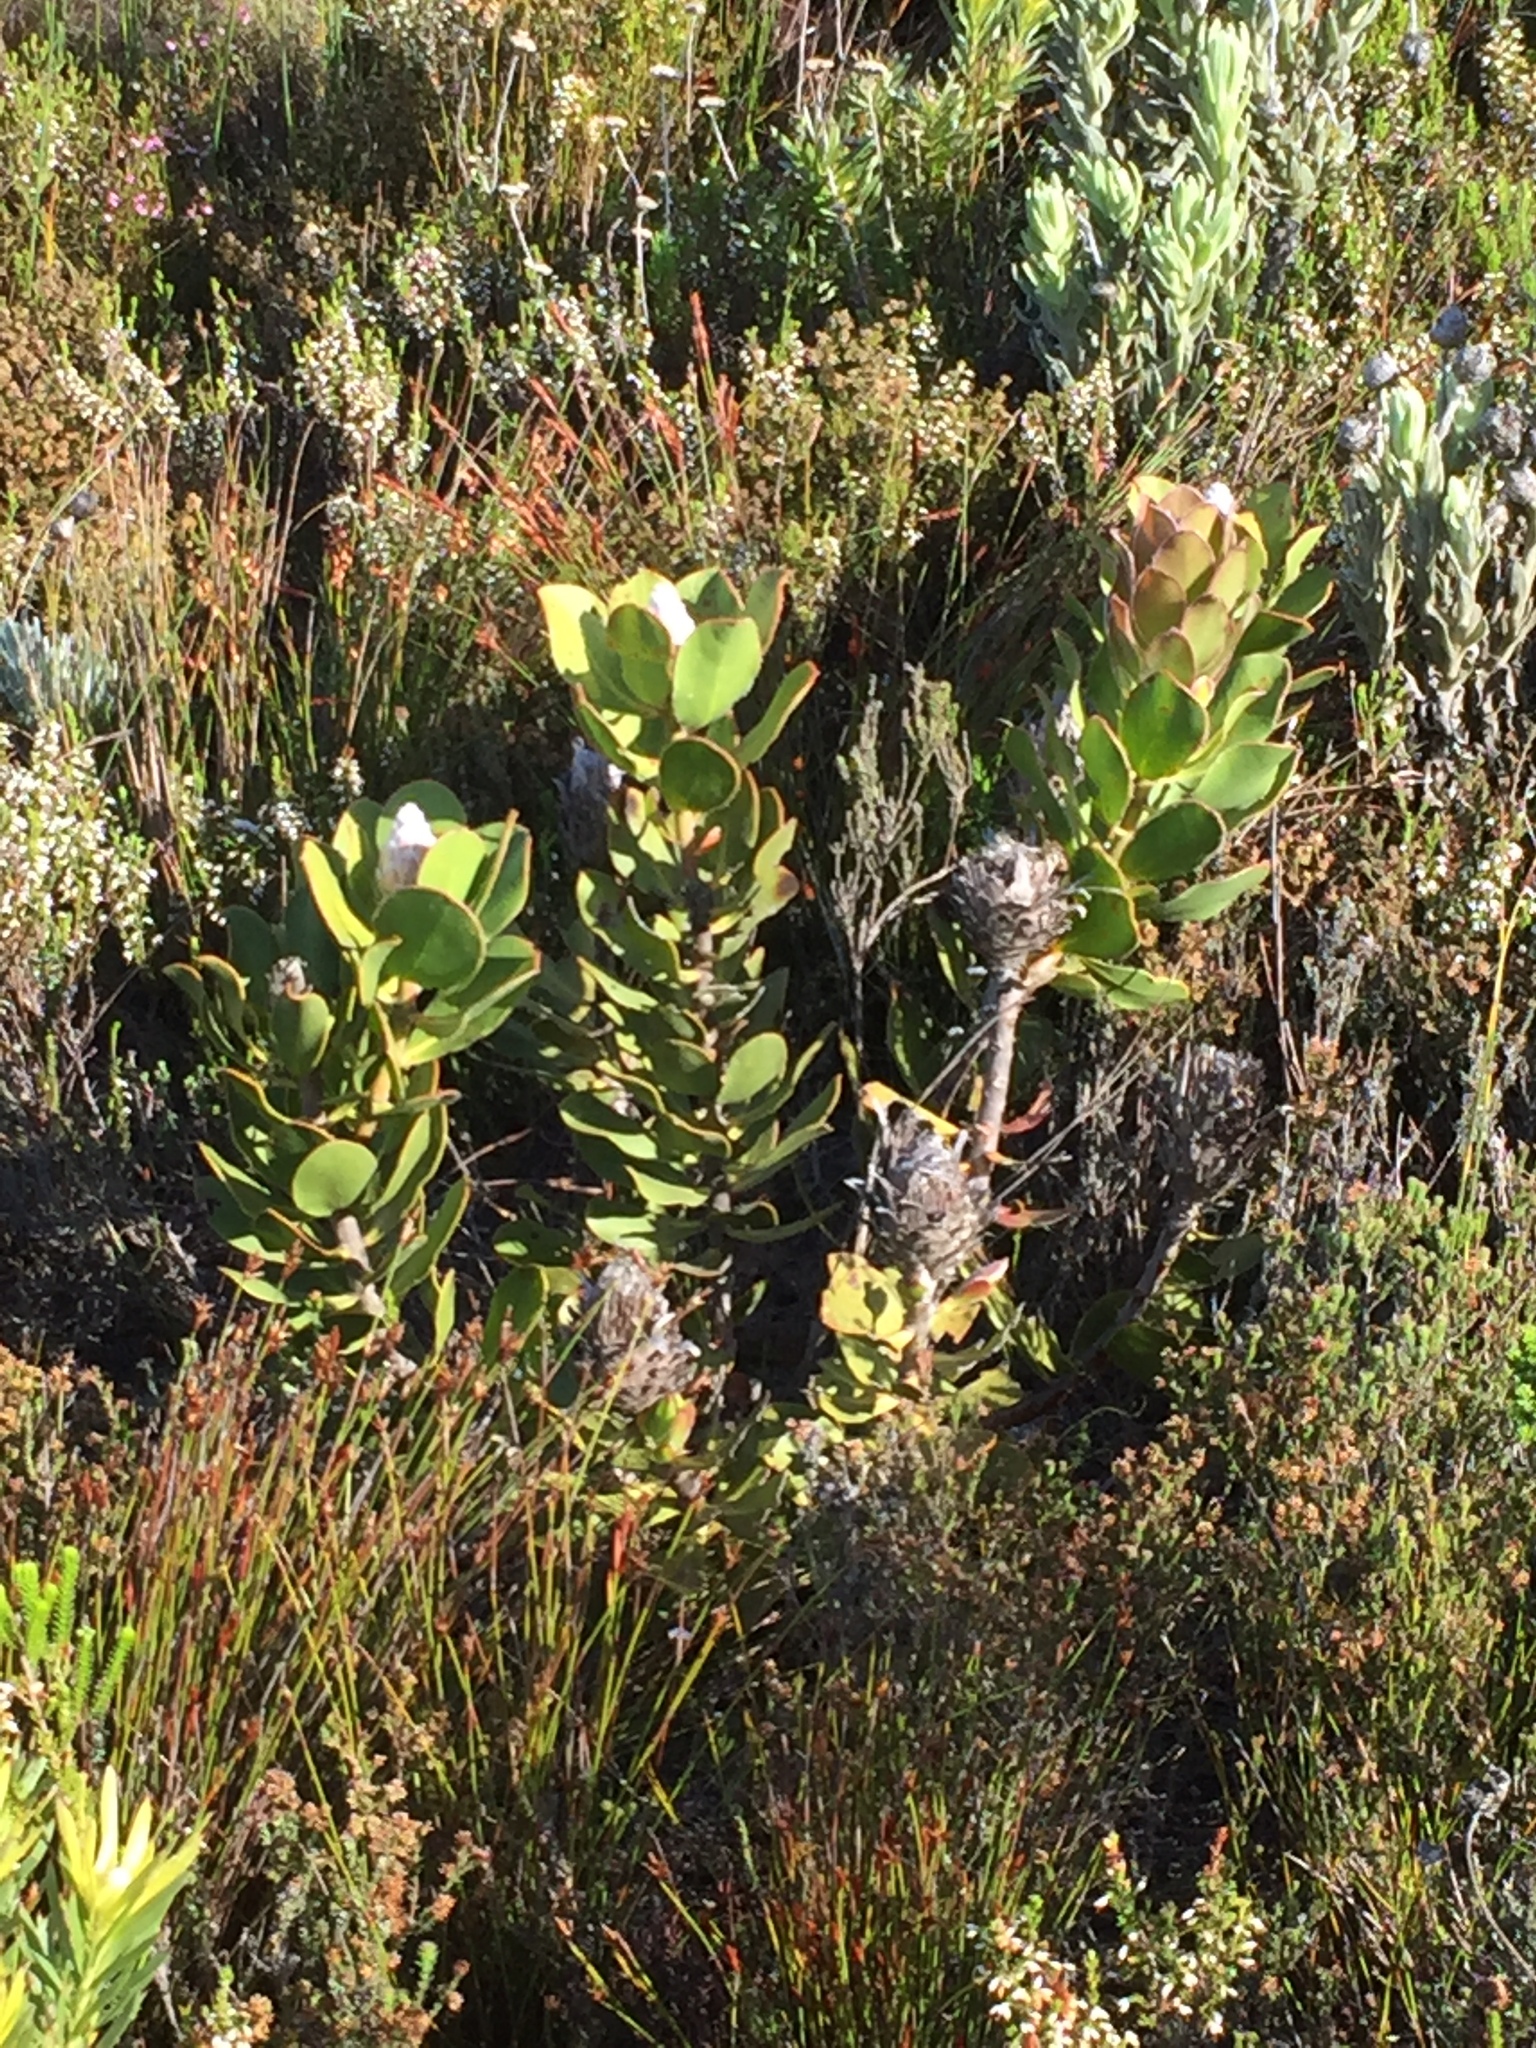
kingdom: Plantae
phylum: Tracheophyta
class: Magnoliopsida
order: Proteales
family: Proteaceae
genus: Protea
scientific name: Protea speciosa
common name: Brown-beard sugarbush
